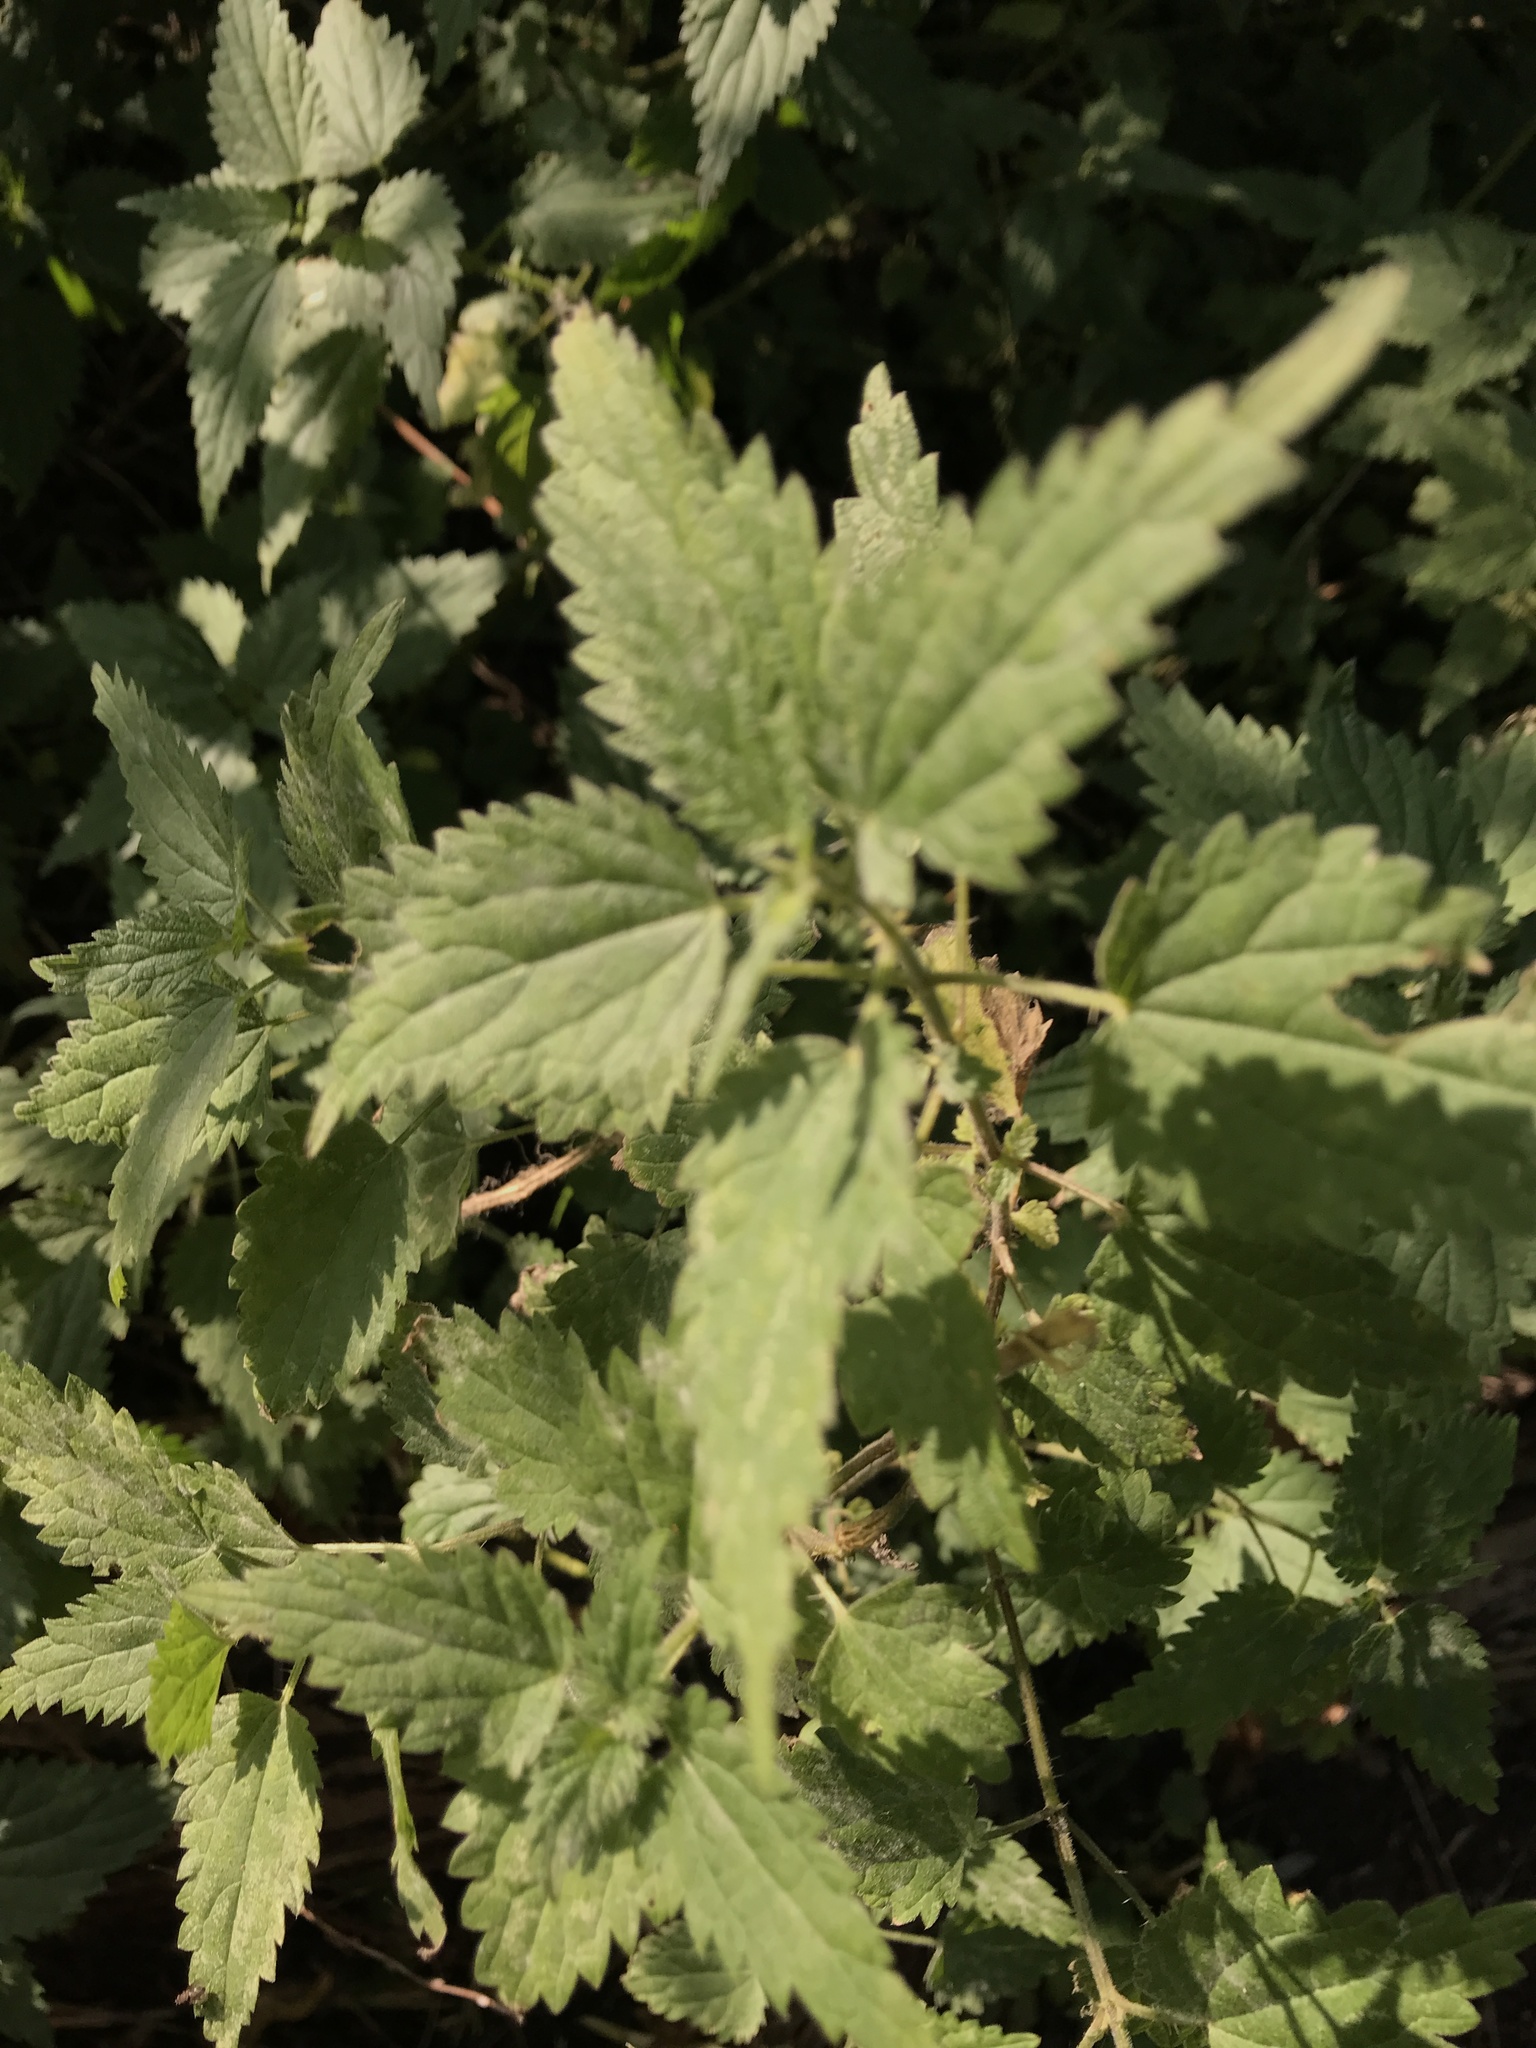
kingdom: Plantae
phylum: Tracheophyta
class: Magnoliopsida
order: Rosales
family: Urticaceae
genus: Urtica
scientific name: Urtica dioica
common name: Common nettle
